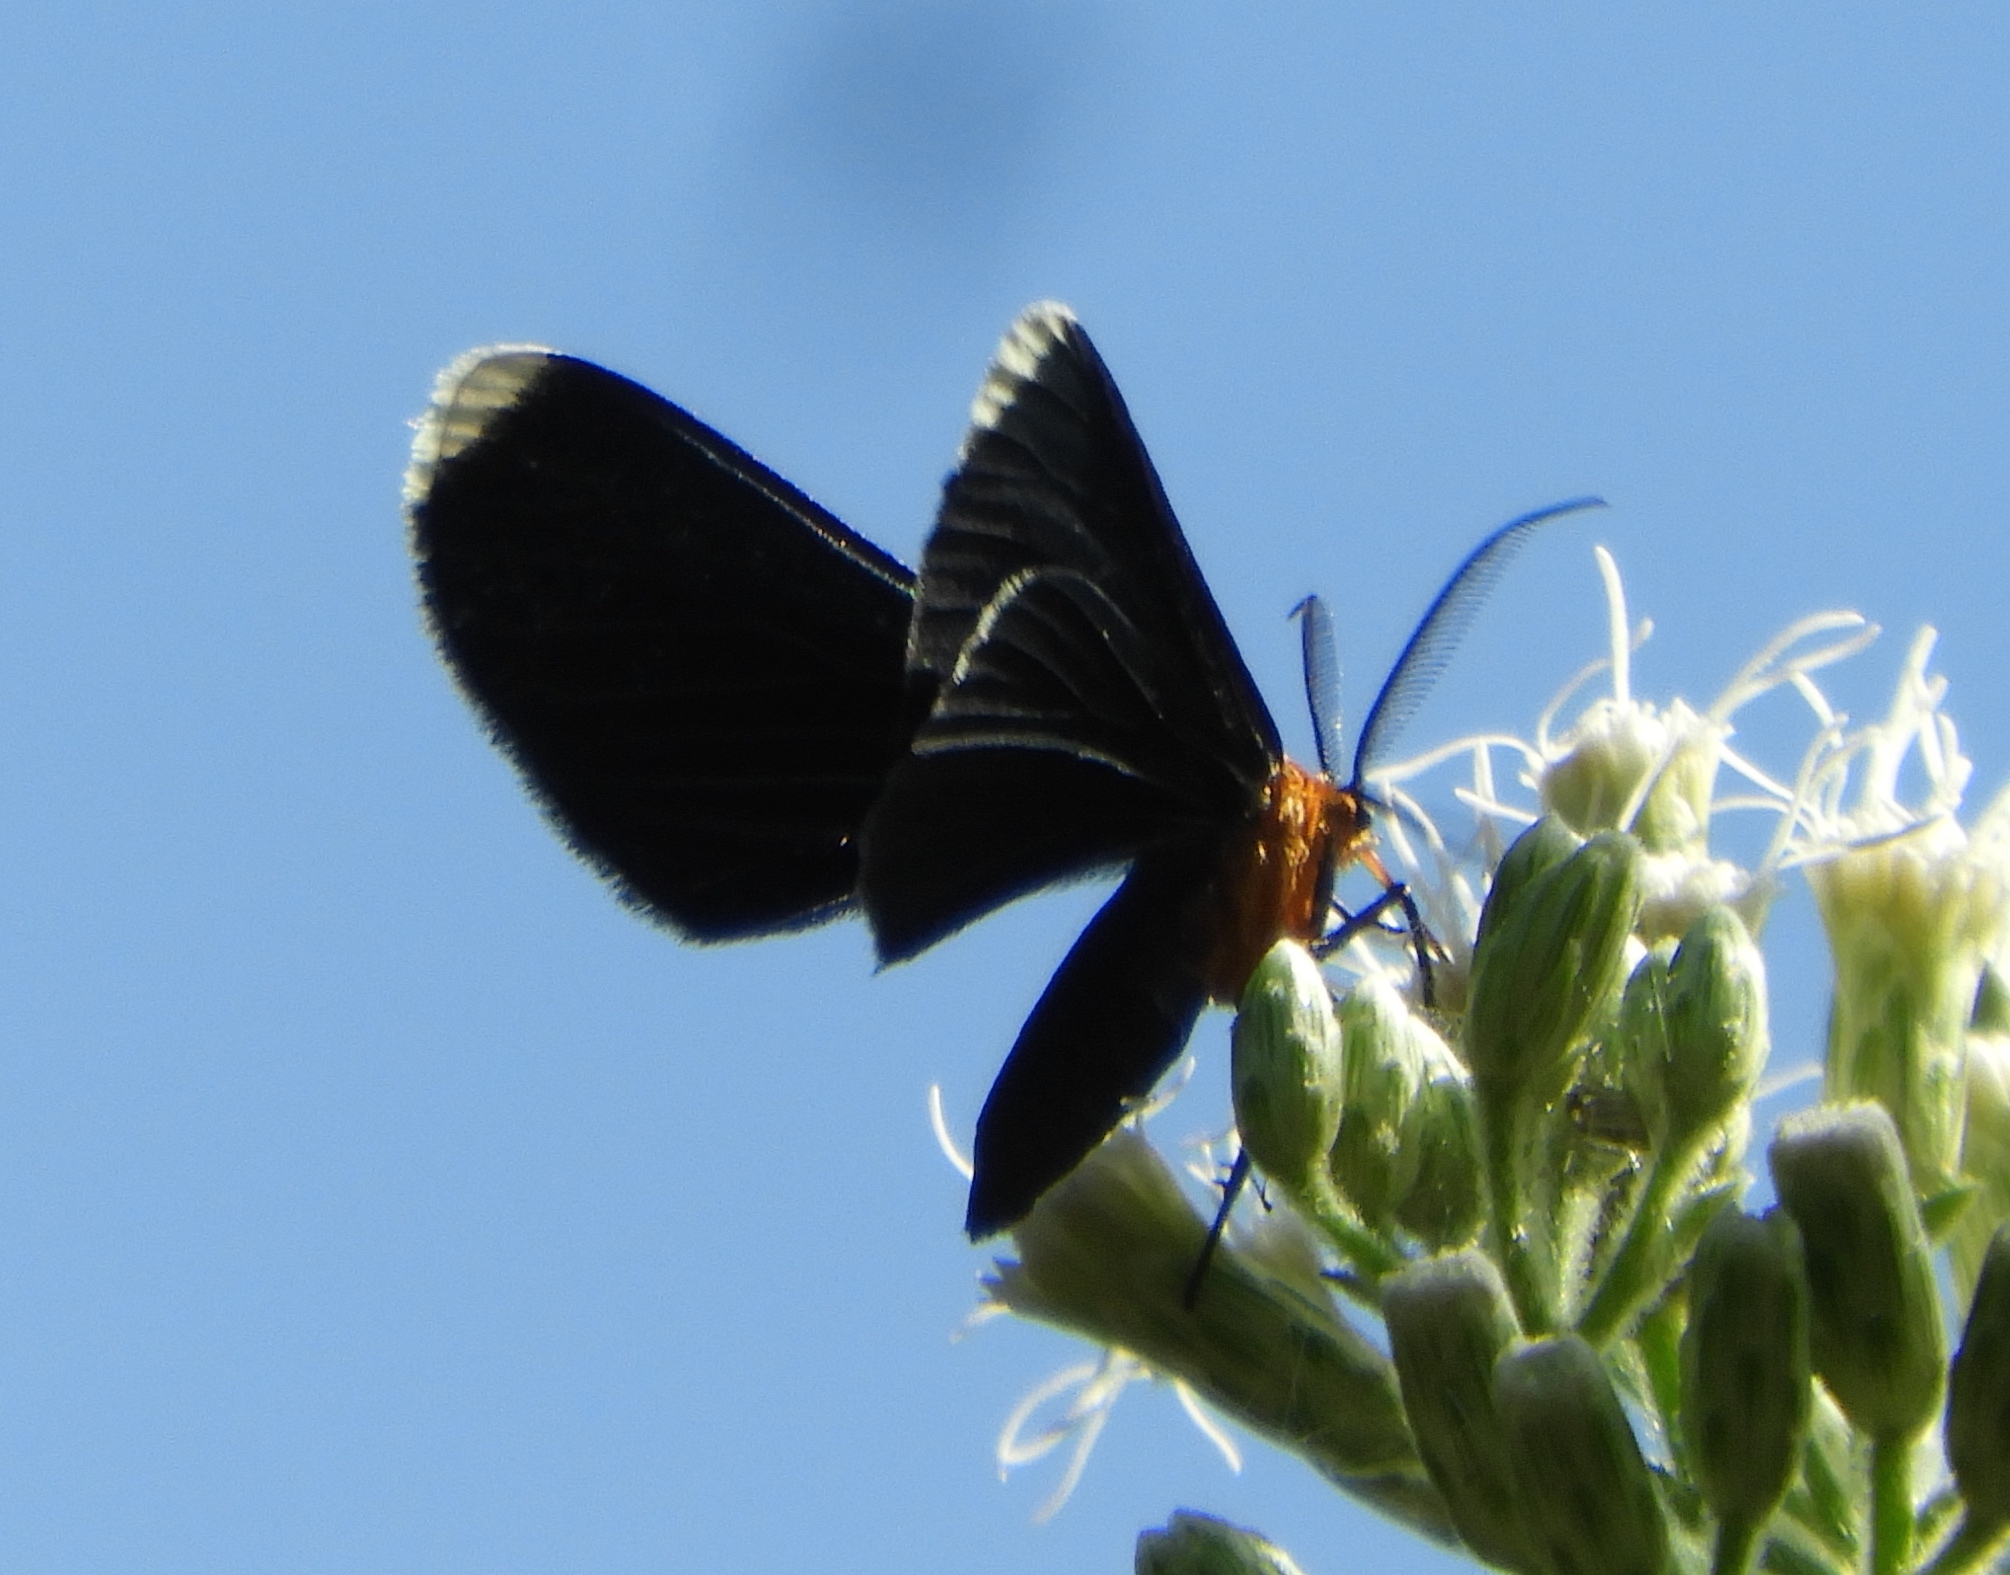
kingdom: Animalia
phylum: Arthropoda
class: Insecta
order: Lepidoptera
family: Geometridae
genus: Melanchroia
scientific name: Melanchroia chephise
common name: White-tipped black
